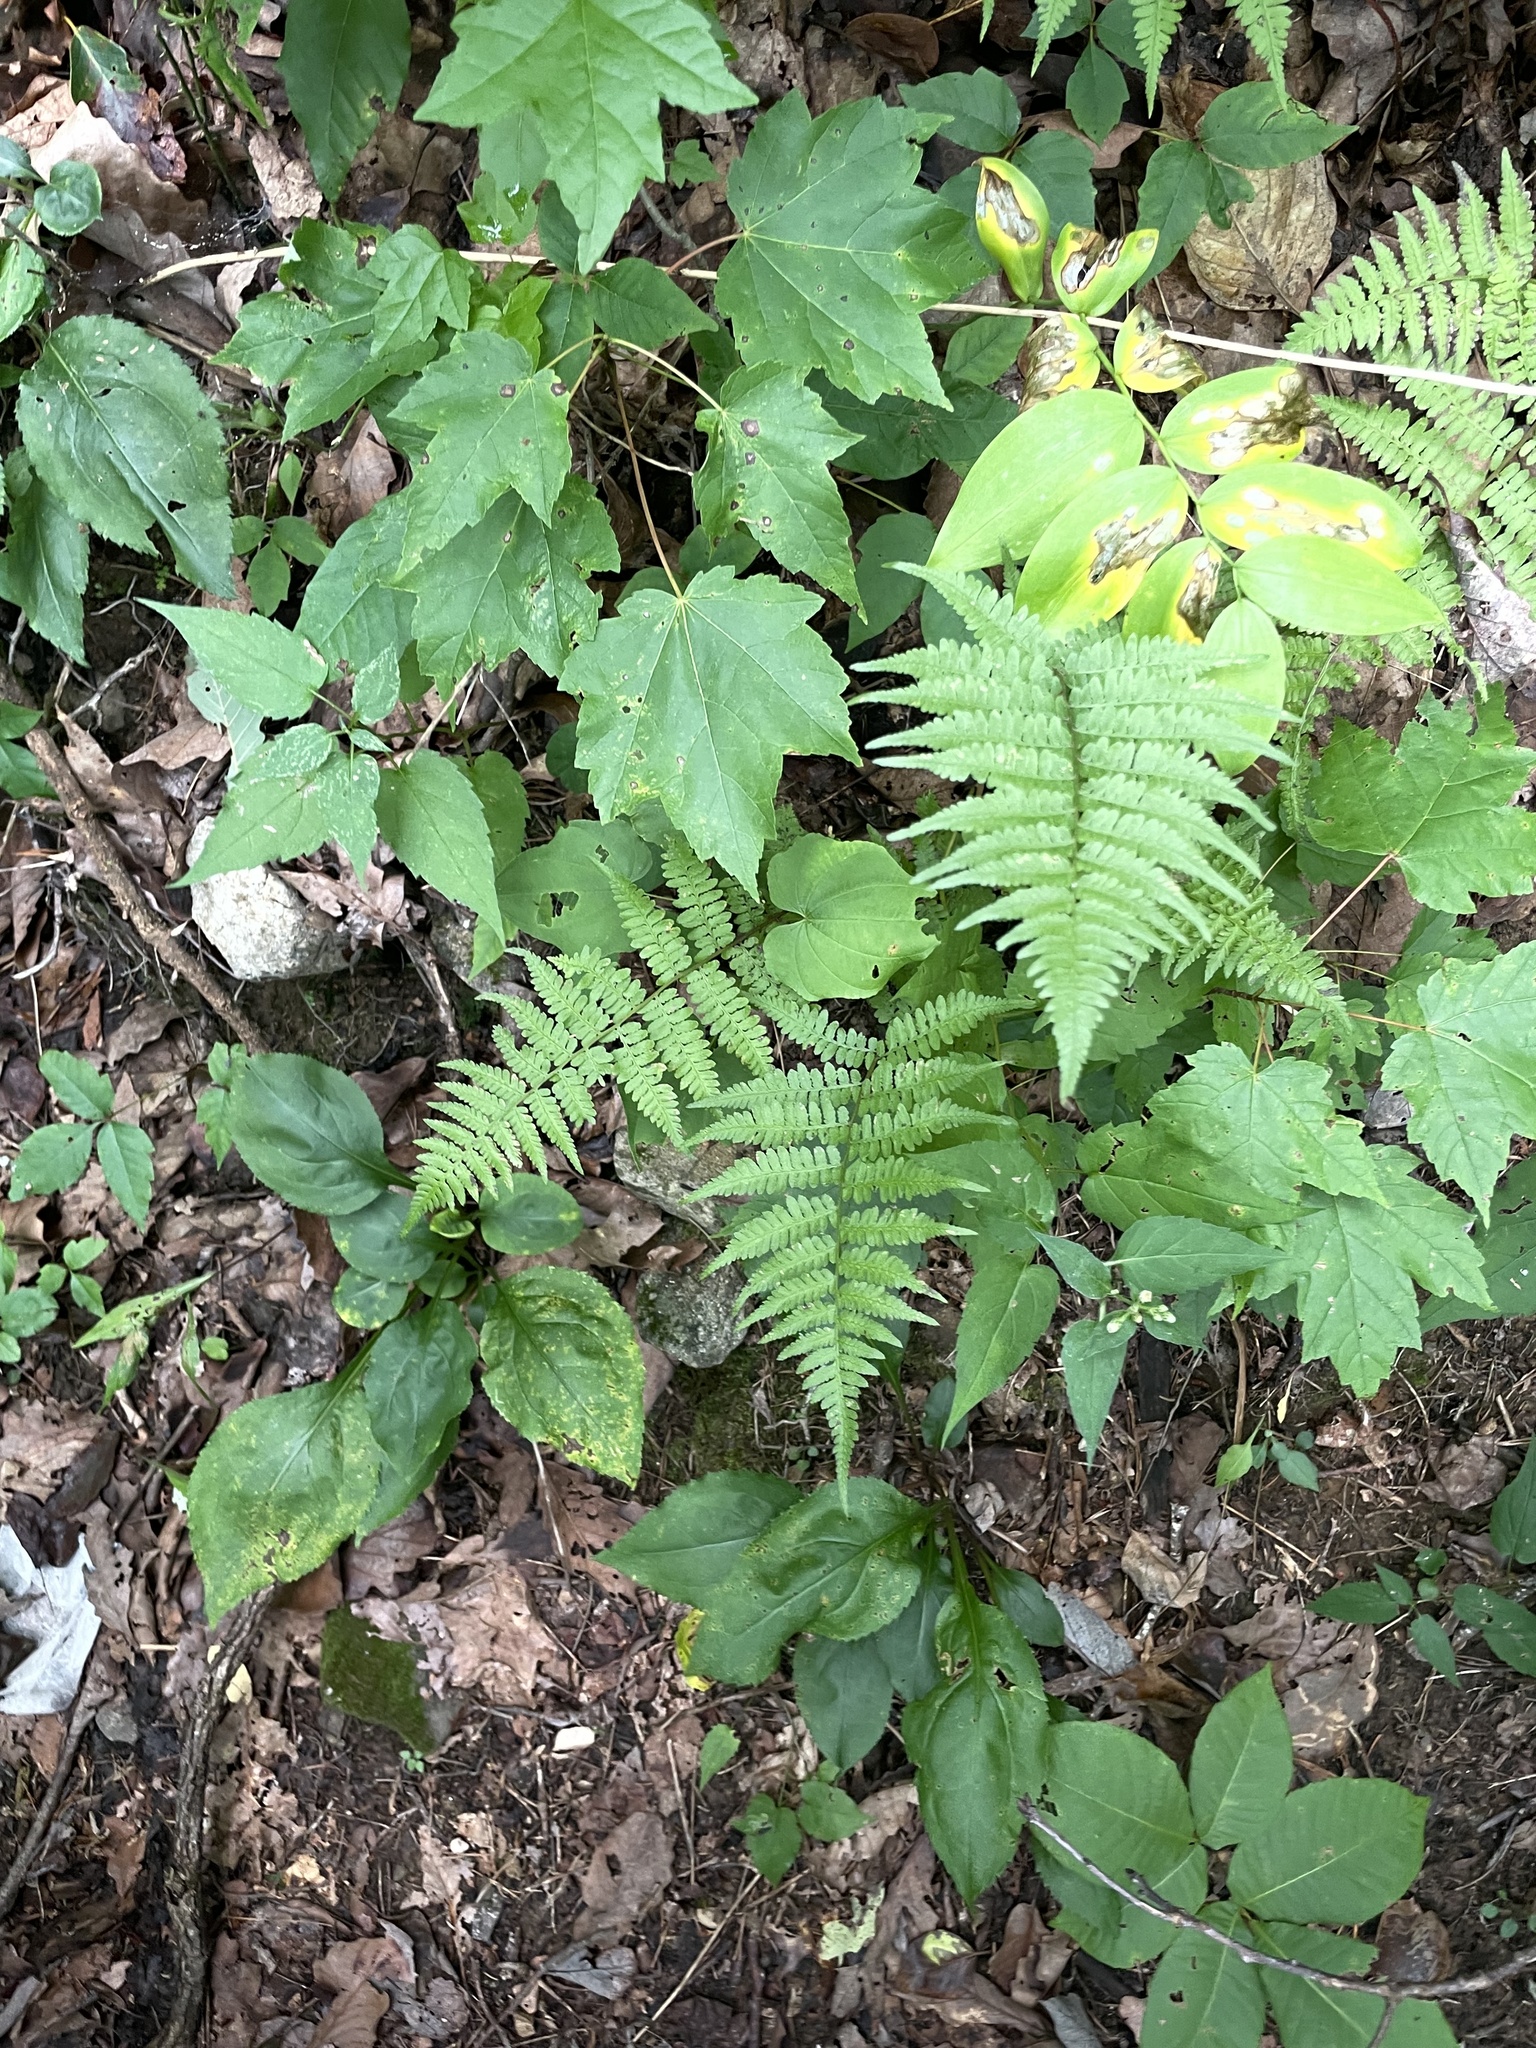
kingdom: Plantae
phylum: Tracheophyta
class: Polypodiopsida
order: Polypodiales
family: Athyriaceae
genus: Athyrium
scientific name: Athyrium asplenioides
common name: Southern lady fern
